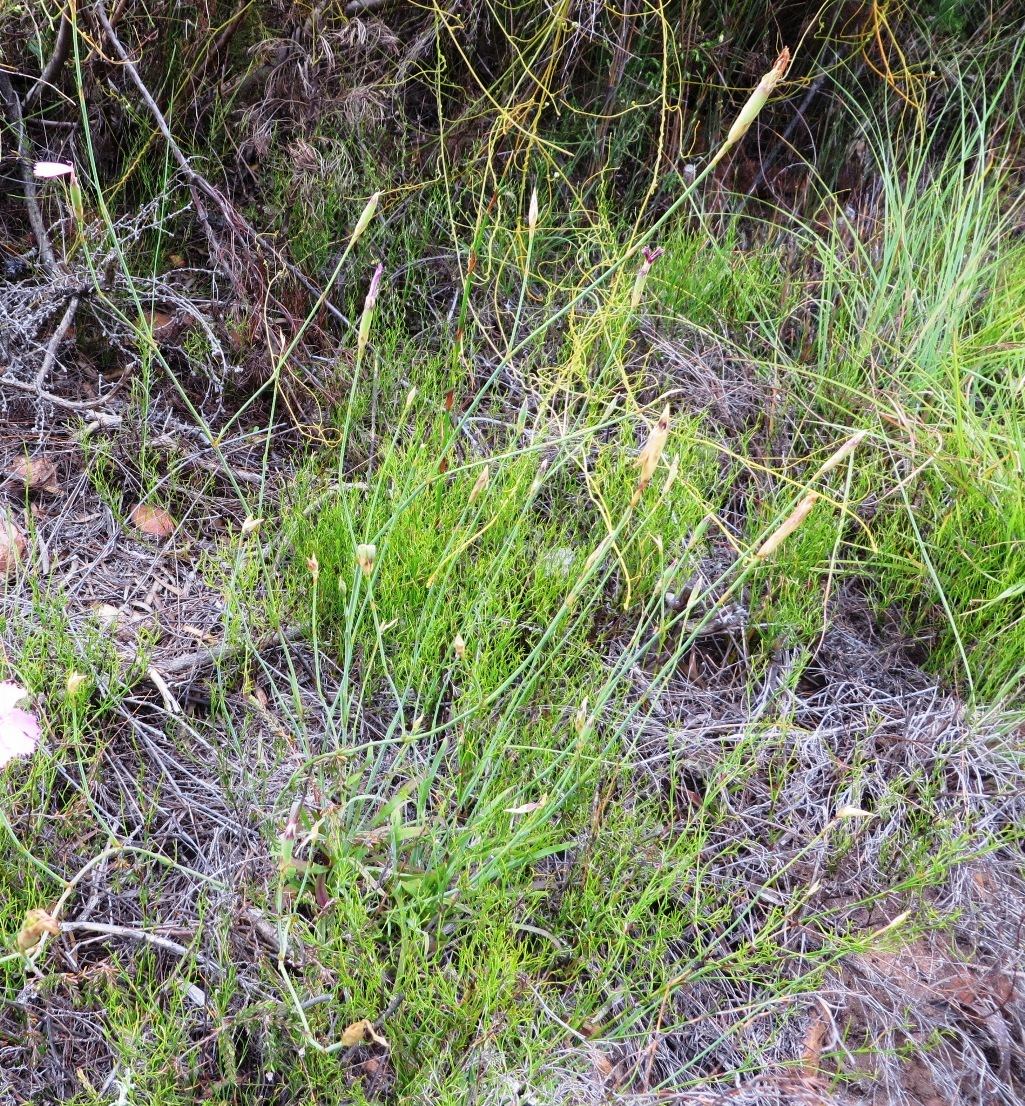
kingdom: Plantae
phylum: Tracheophyta
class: Magnoliopsida
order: Caryophyllales
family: Caryophyllaceae
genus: Dianthus
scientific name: Dianthus albens
